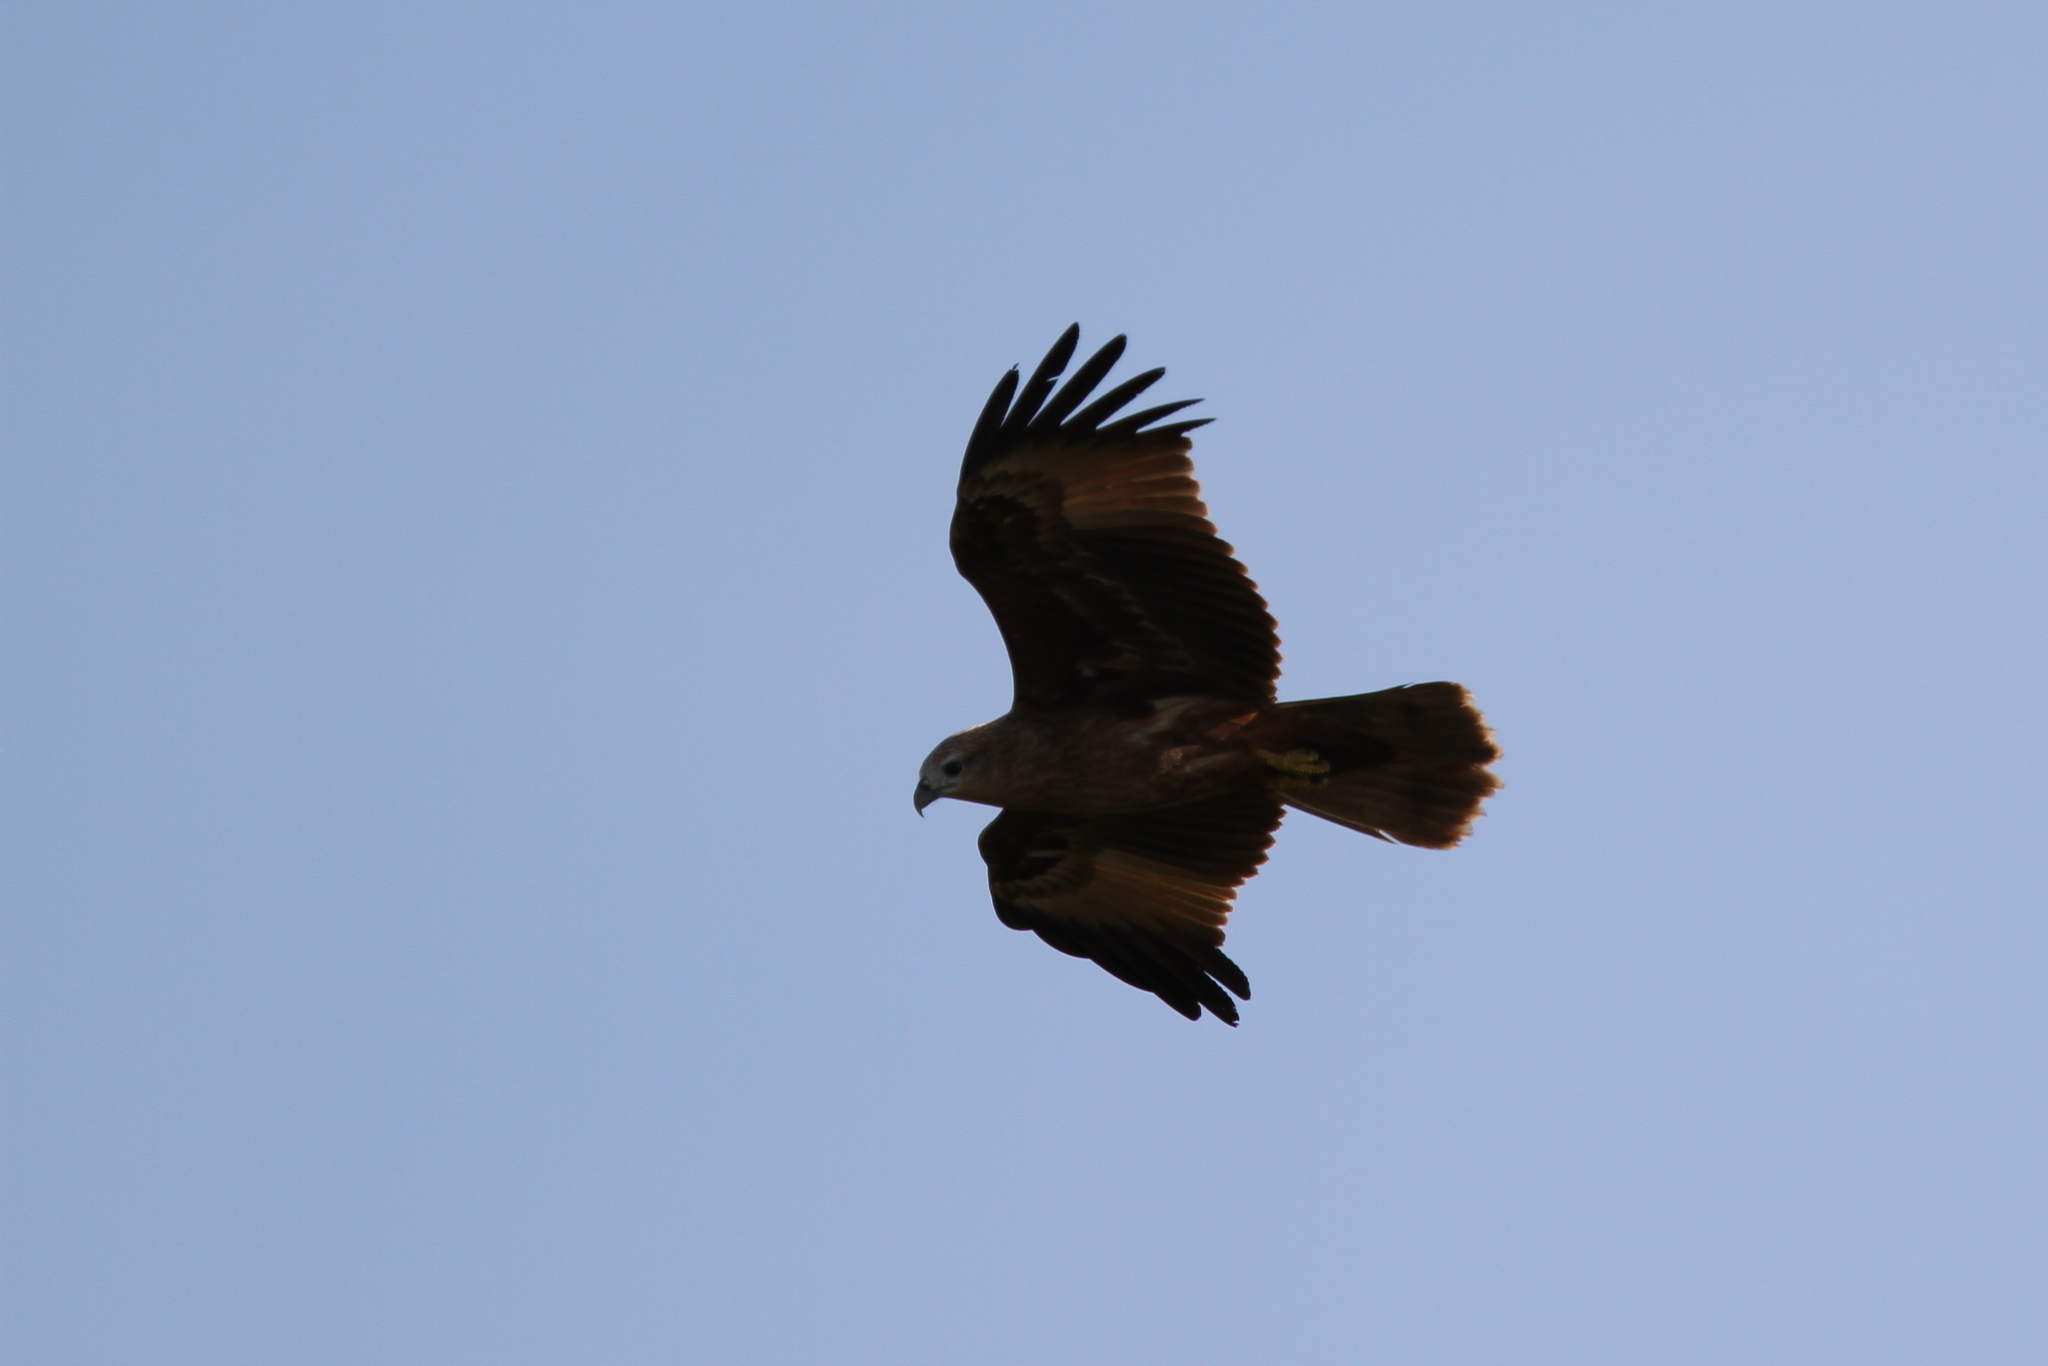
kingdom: Animalia
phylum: Chordata
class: Aves
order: Accipitriformes
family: Accipitridae
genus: Haliastur
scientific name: Haliastur indus
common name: Brahminy kite
